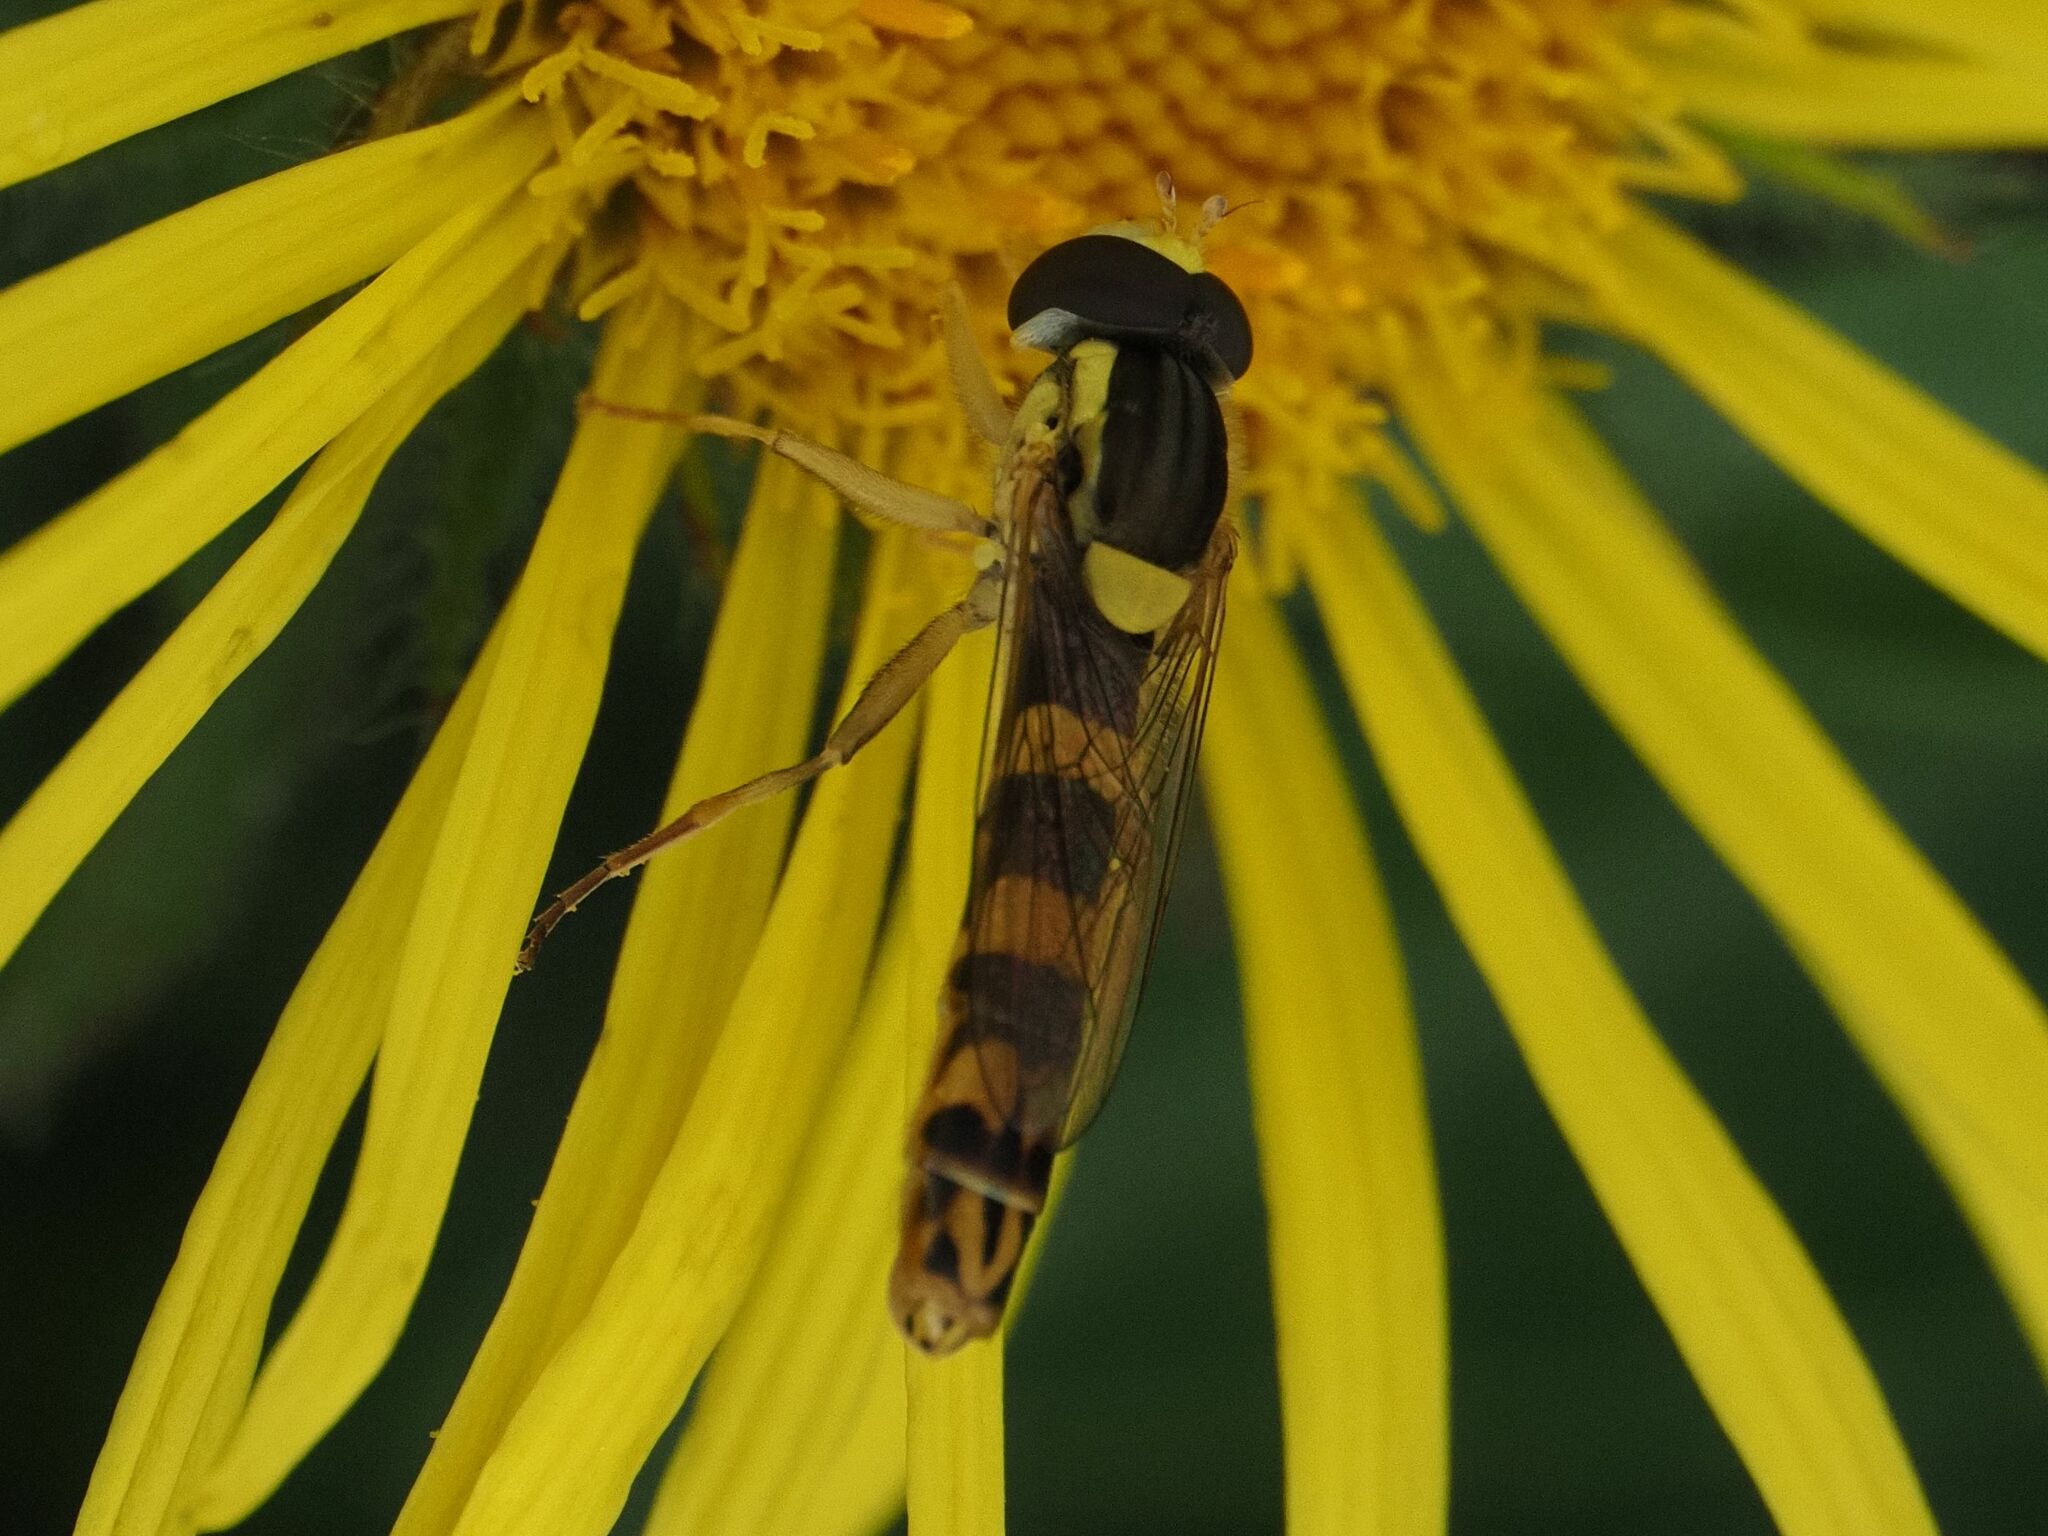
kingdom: Animalia
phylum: Arthropoda
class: Insecta
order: Diptera
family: Syrphidae
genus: Sphaerophoria
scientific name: Sphaerophoria scripta
